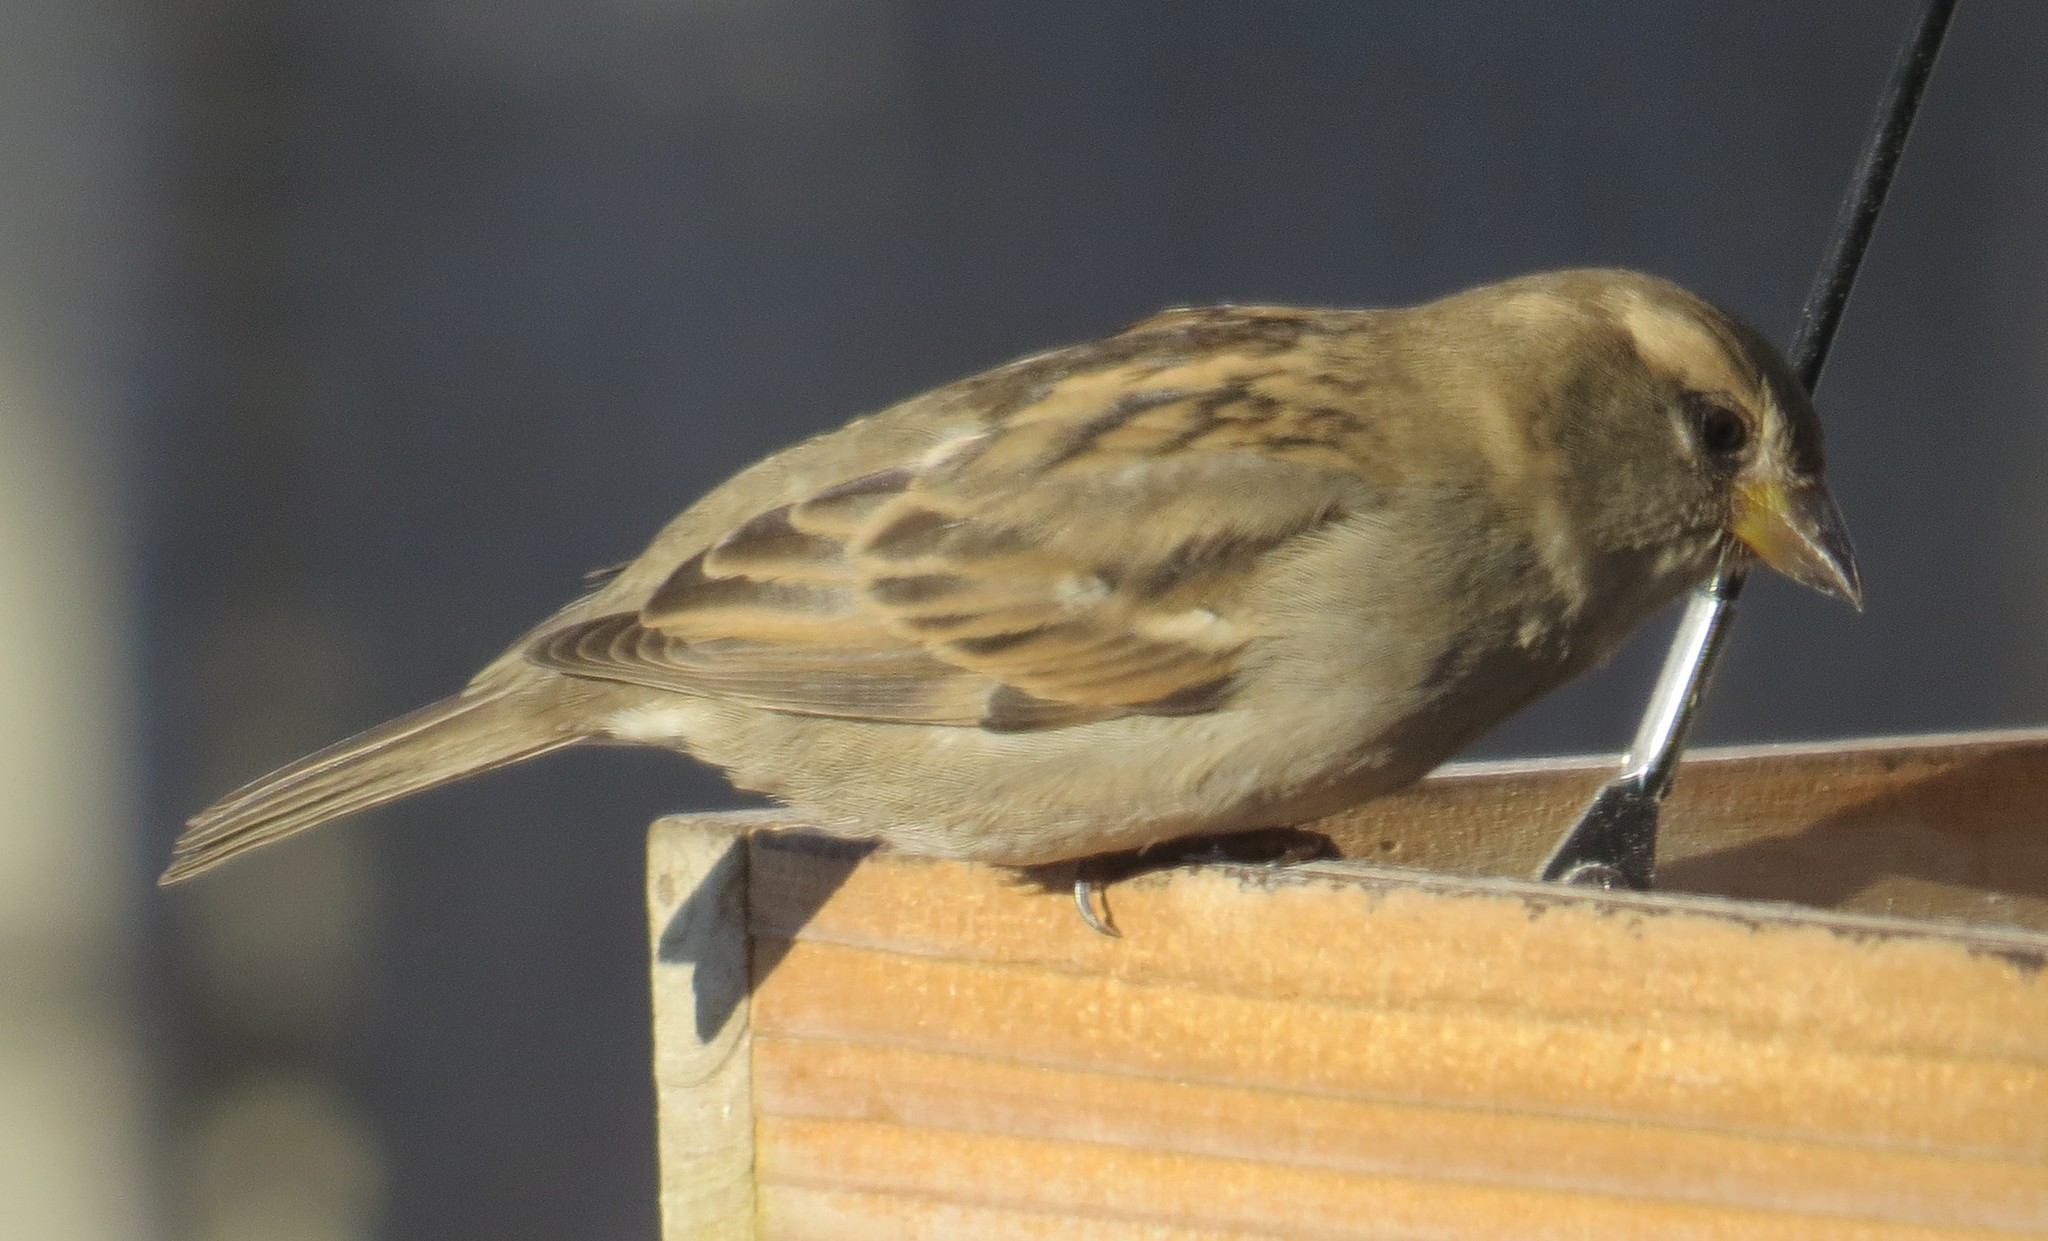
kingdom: Animalia
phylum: Chordata
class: Aves
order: Passeriformes
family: Passeridae
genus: Passer
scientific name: Passer domesticus
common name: House sparrow
